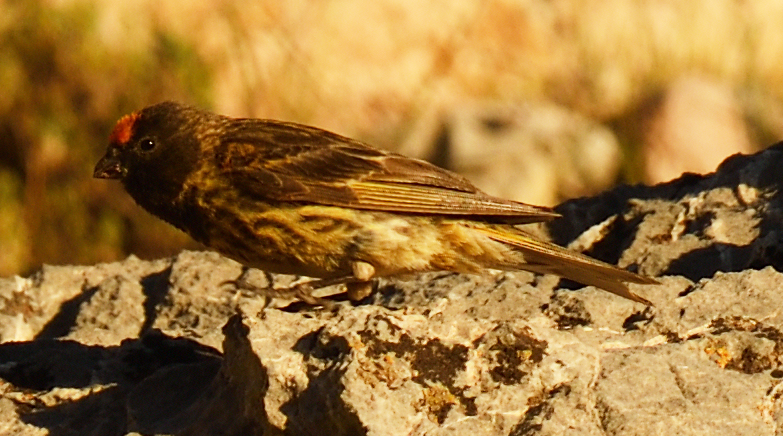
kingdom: Animalia
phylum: Chordata
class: Aves
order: Passeriformes
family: Fringillidae
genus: Serinus
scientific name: Serinus pusillus
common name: Red-fronted serin
